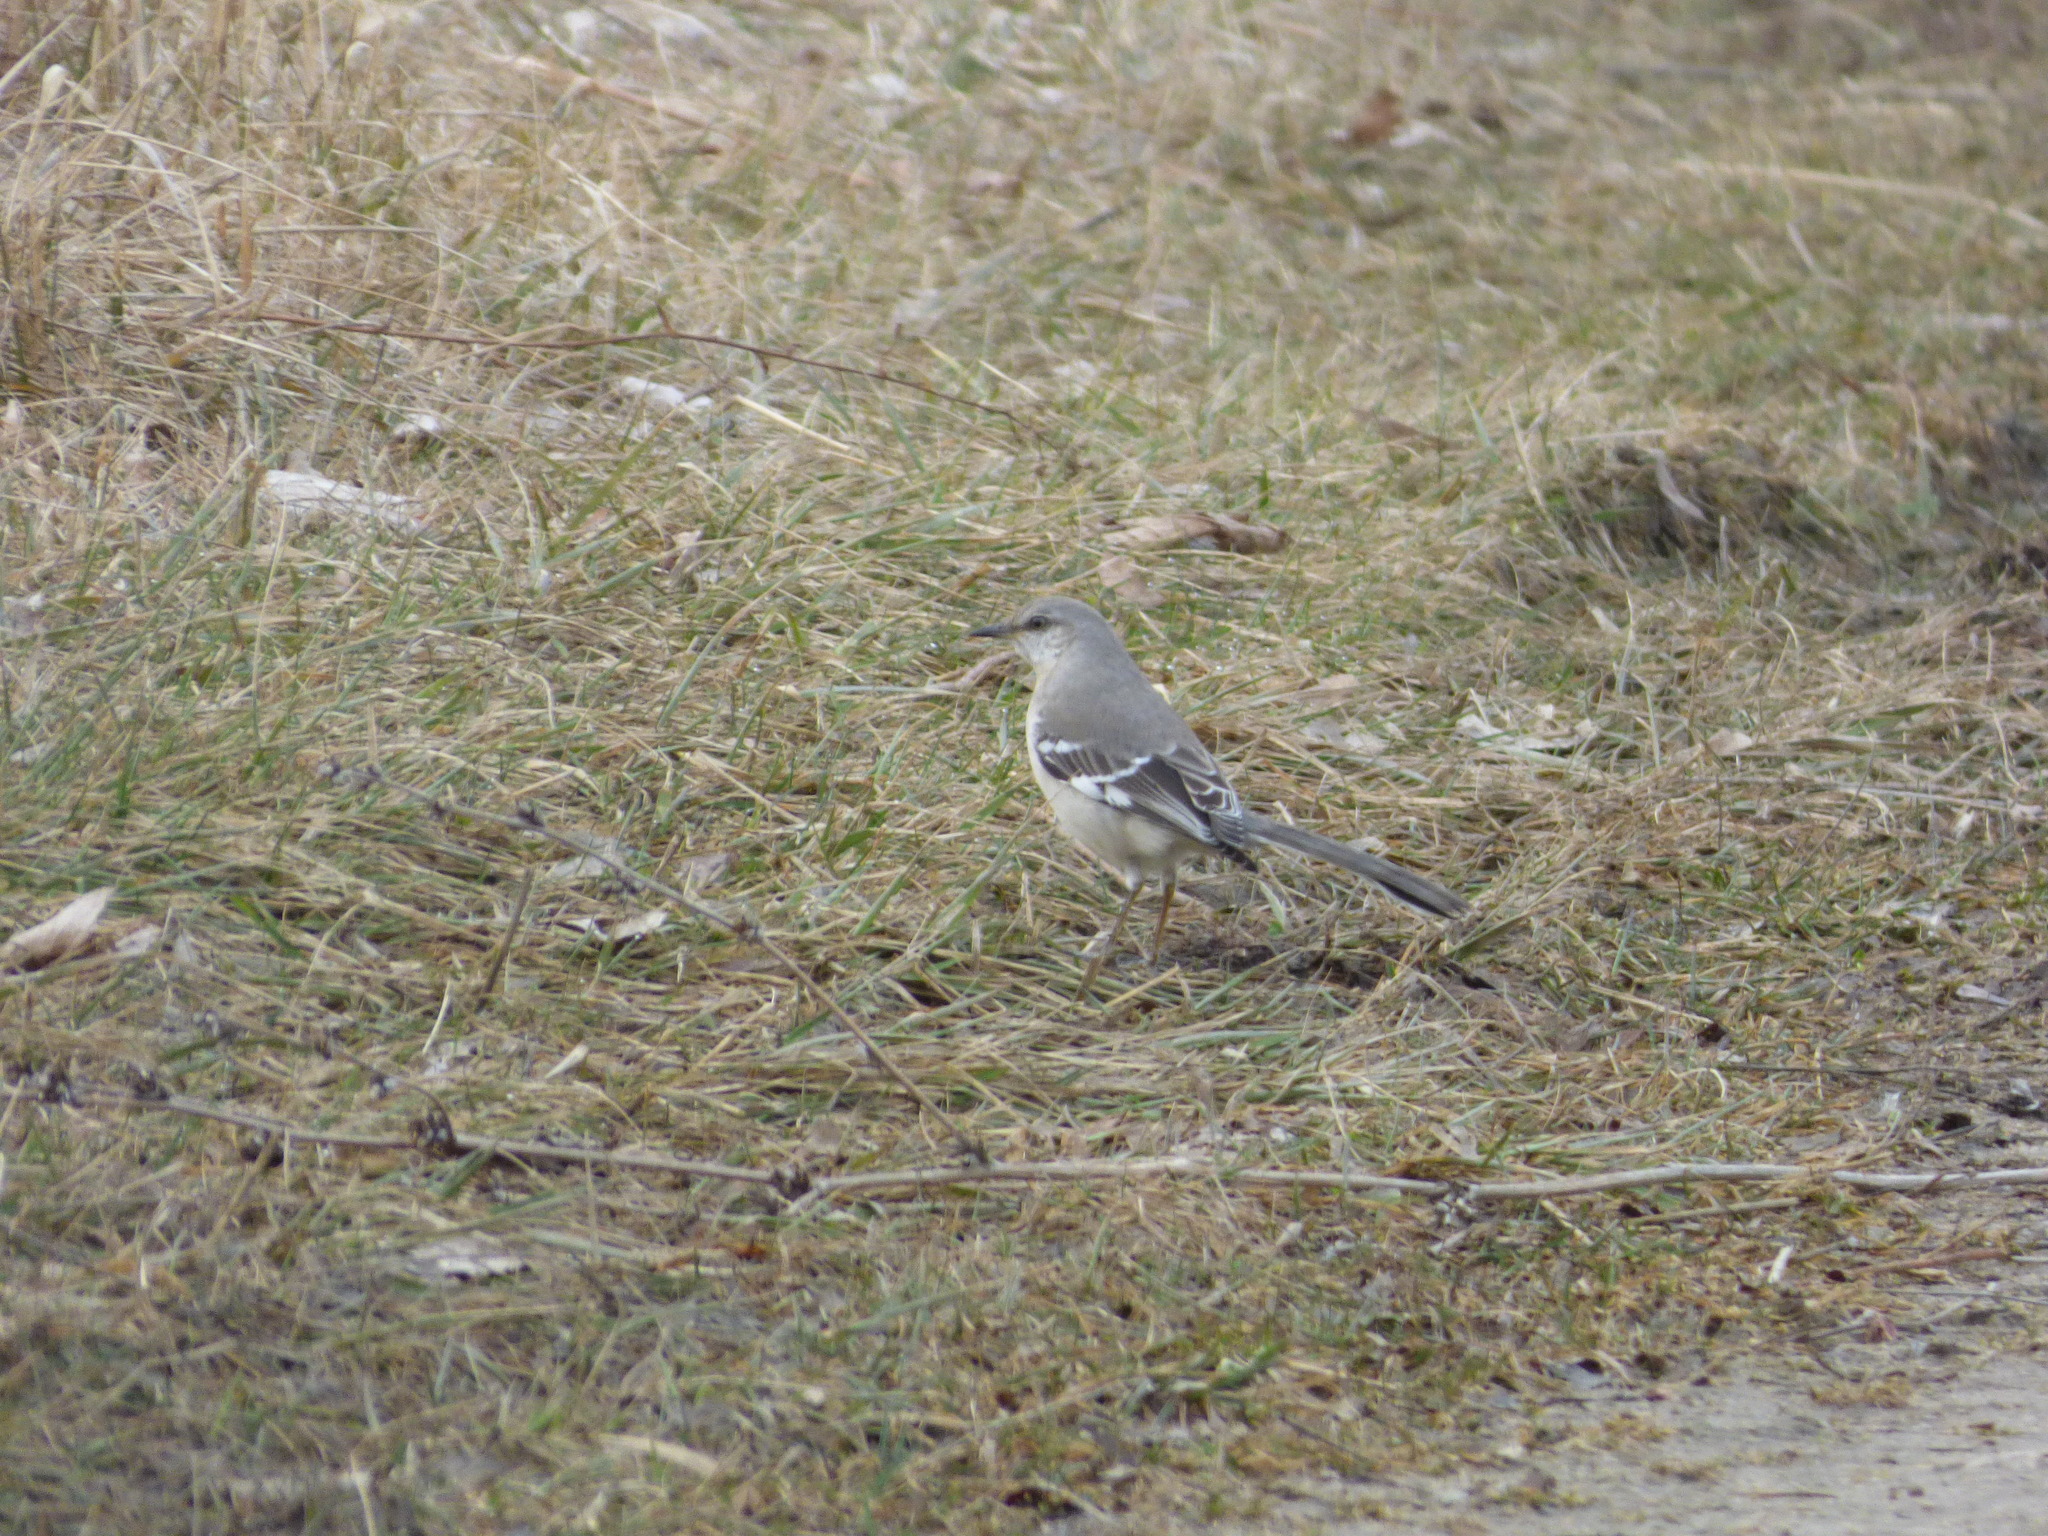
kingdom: Animalia
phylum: Chordata
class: Aves
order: Passeriformes
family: Mimidae
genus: Mimus
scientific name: Mimus polyglottos
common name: Northern mockingbird
